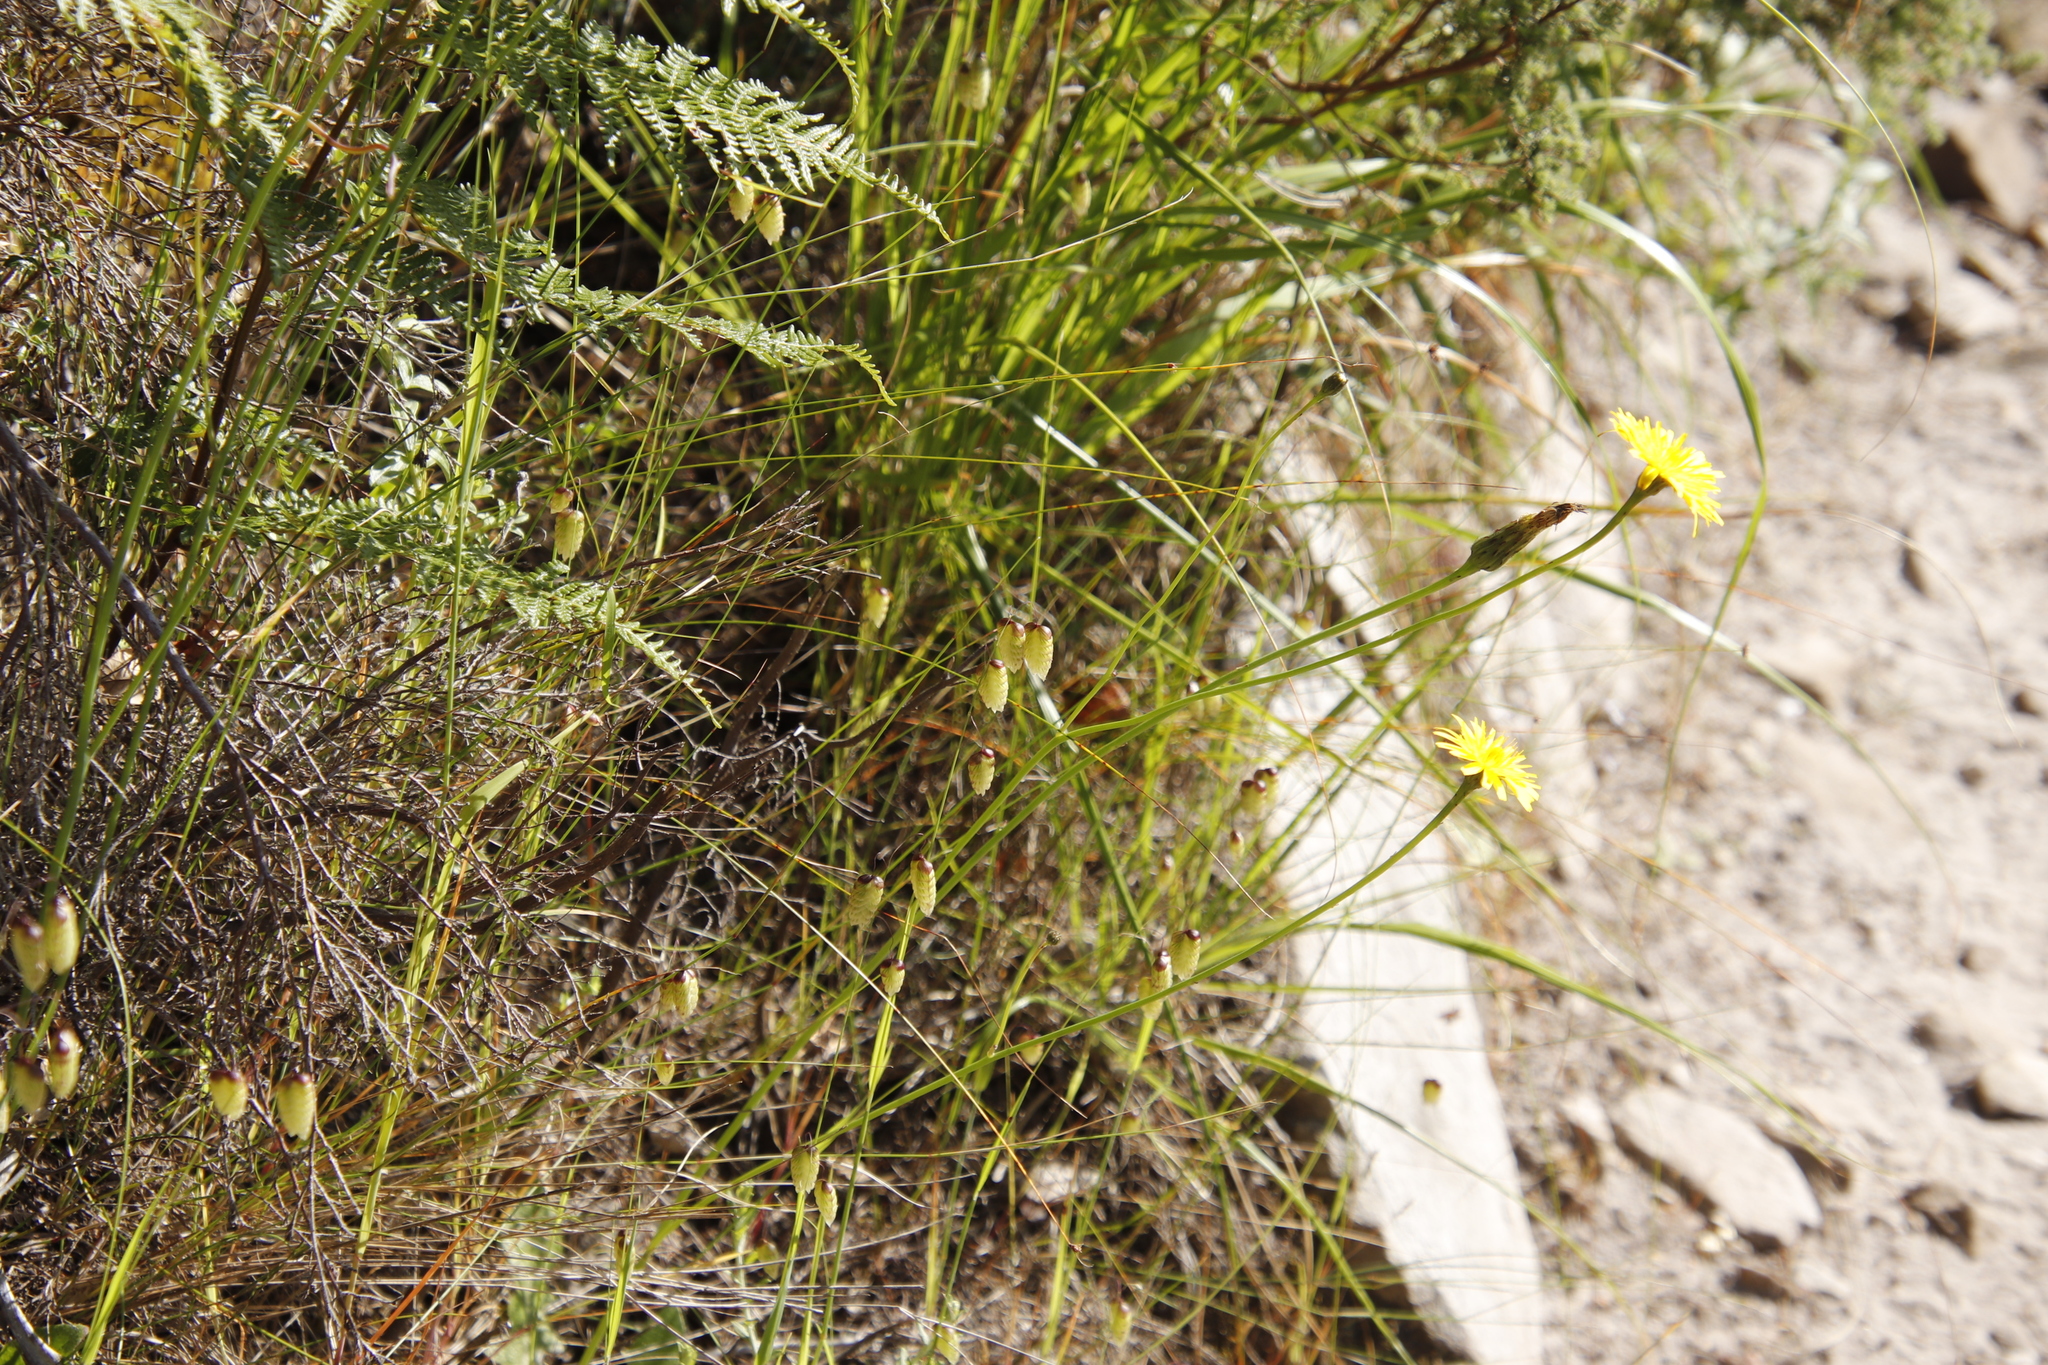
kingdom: Plantae
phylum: Tracheophyta
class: Liliopsida
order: Poales
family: Poaceae
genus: Briza
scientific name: Briza maxima
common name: Big quakinggrass
